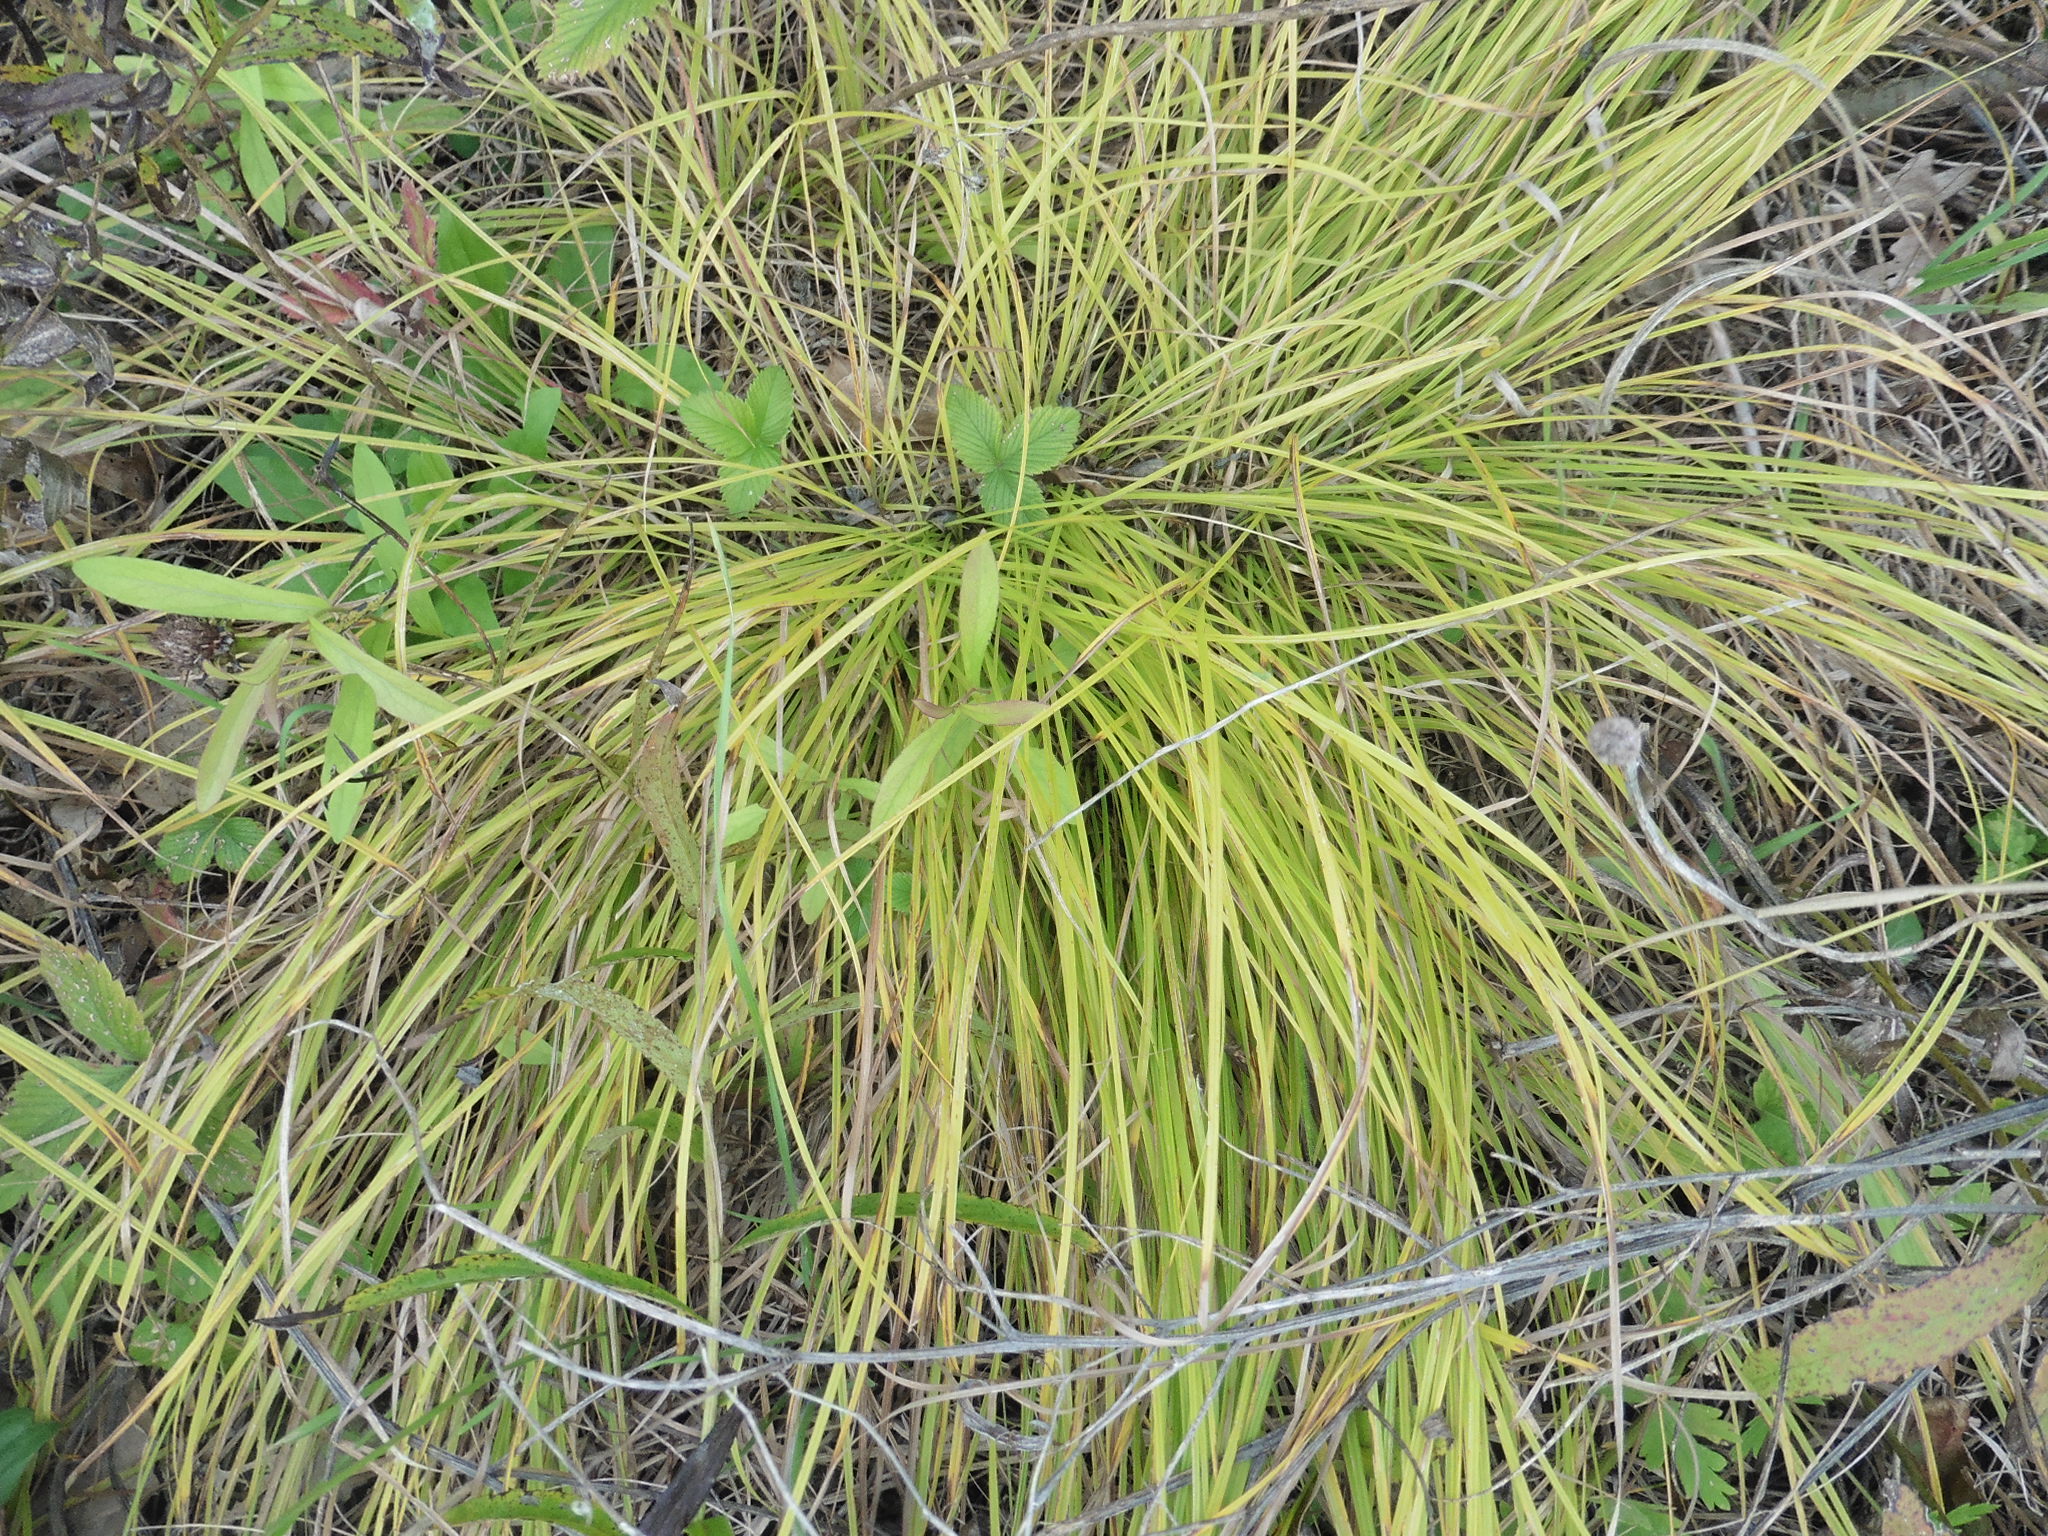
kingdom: Plantae
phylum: Tracheophyta
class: Liliopsida
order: Poales
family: Cyperaceae
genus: Carex
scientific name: Carex montana
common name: Soft-leaved sedge
